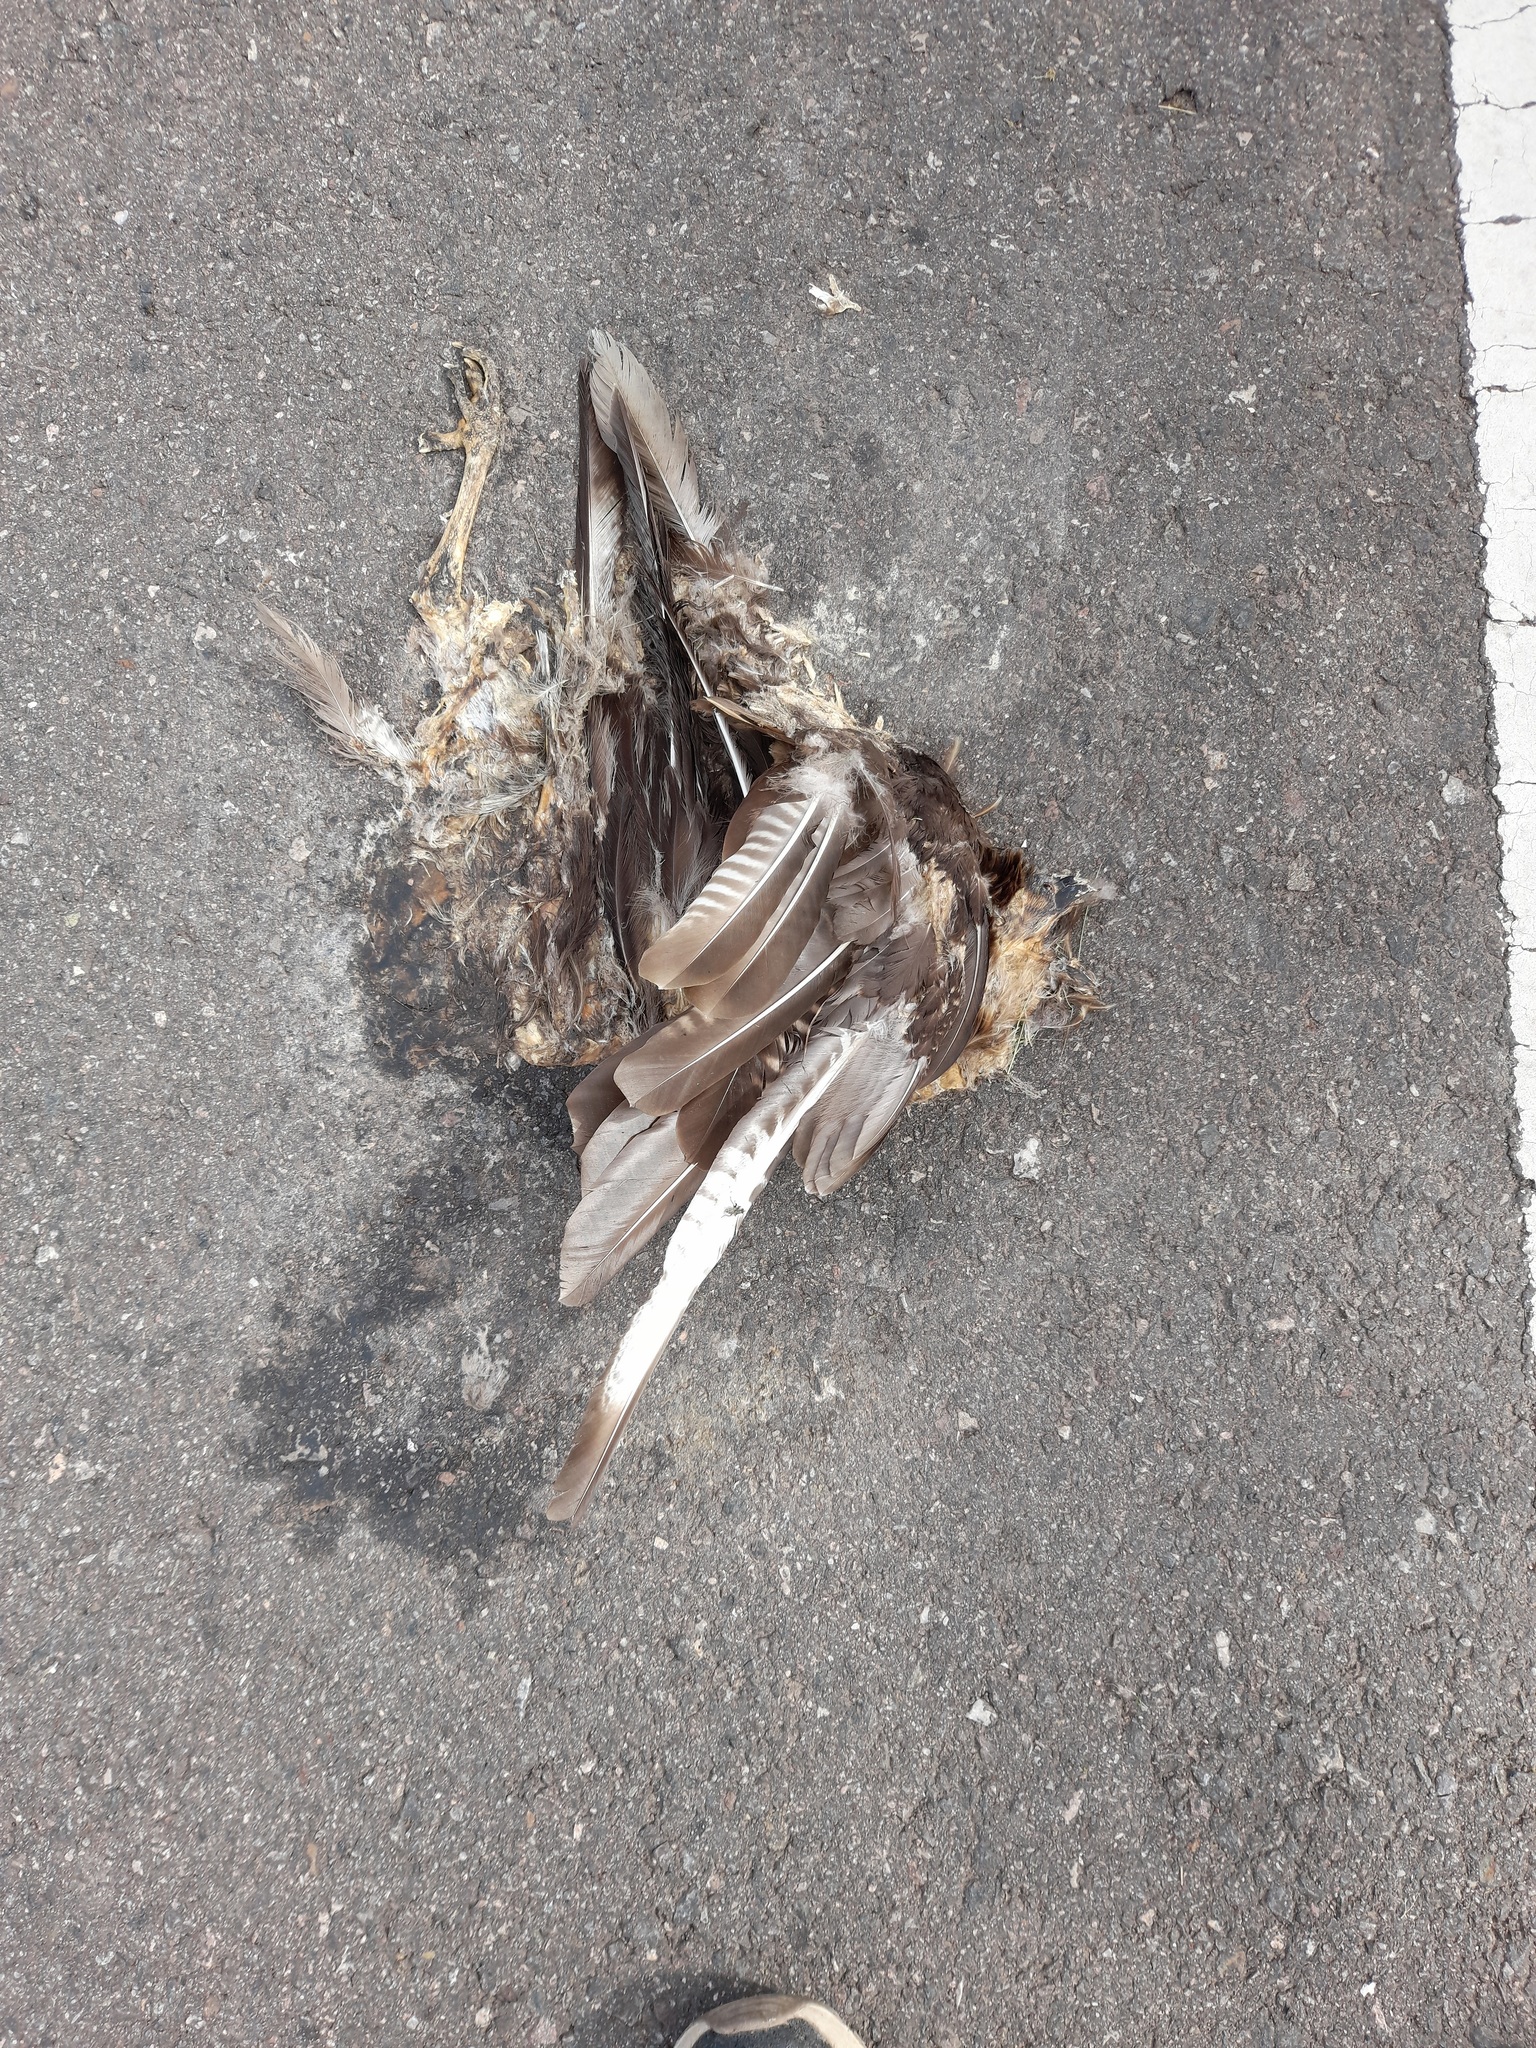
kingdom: Animalia
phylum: Chordata
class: Aves
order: Falconiformes
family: Falconidae
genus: Caracara
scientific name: Caracara plancus
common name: Southern caracara
